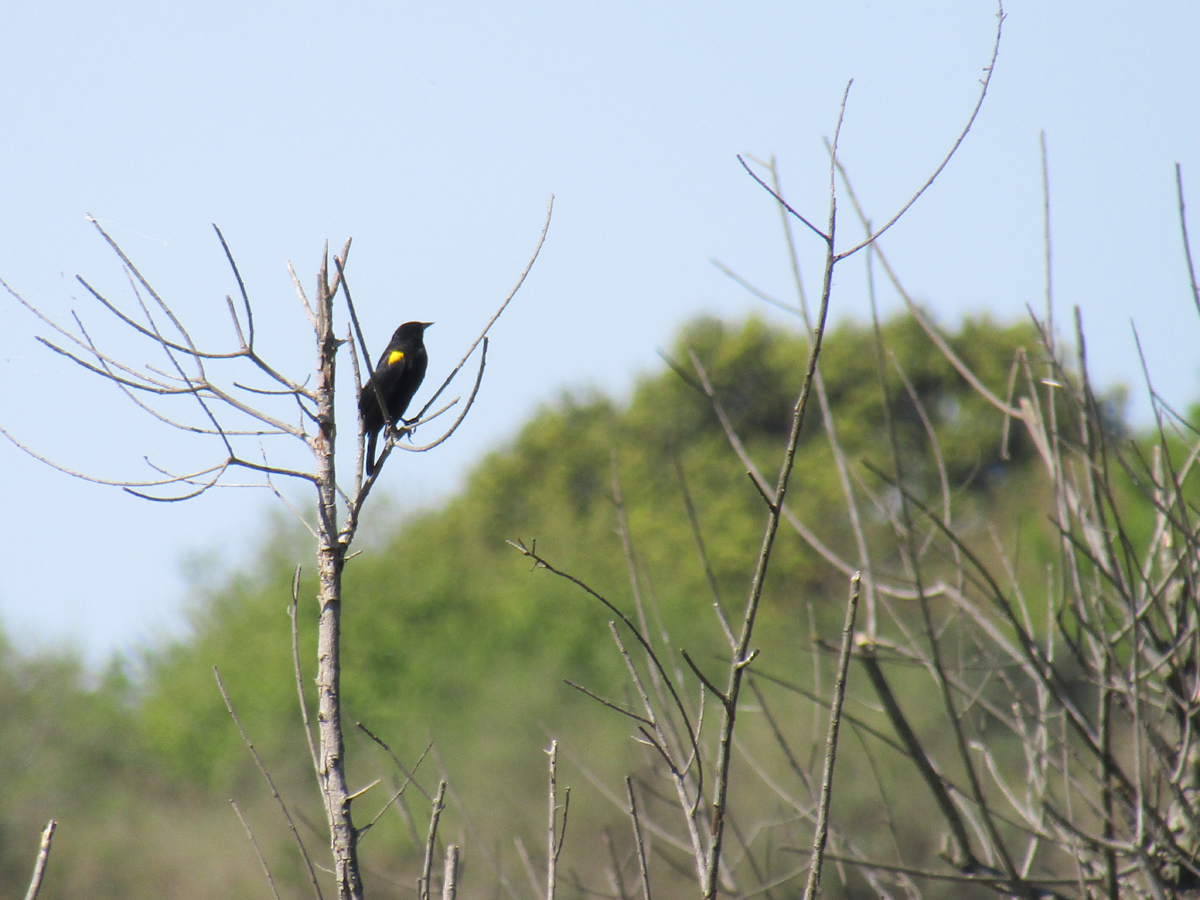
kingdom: Animalia
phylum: Chordata
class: Aves
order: Passeriformes
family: Icteridae
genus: Agelasticus
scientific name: Agelasticus thilius
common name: Yellow-winged blackbird
